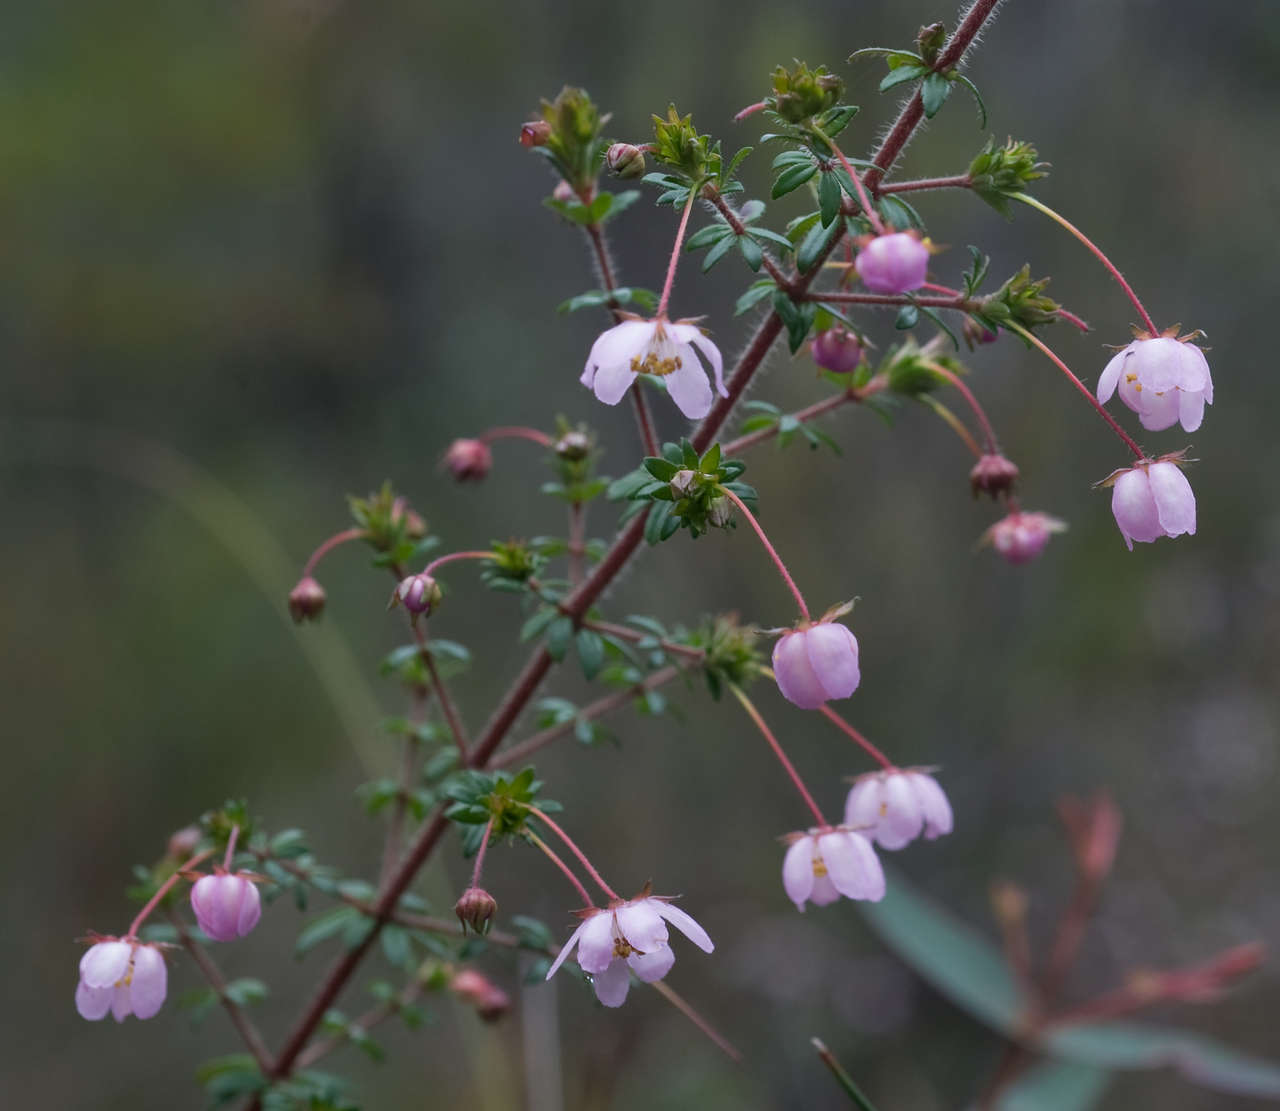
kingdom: Plantae
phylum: Tracheophyta
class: Magnoliopsida
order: Oxalidales
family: Cunoniaceae
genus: Bauera
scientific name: Bauera rubioides
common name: River-rose
